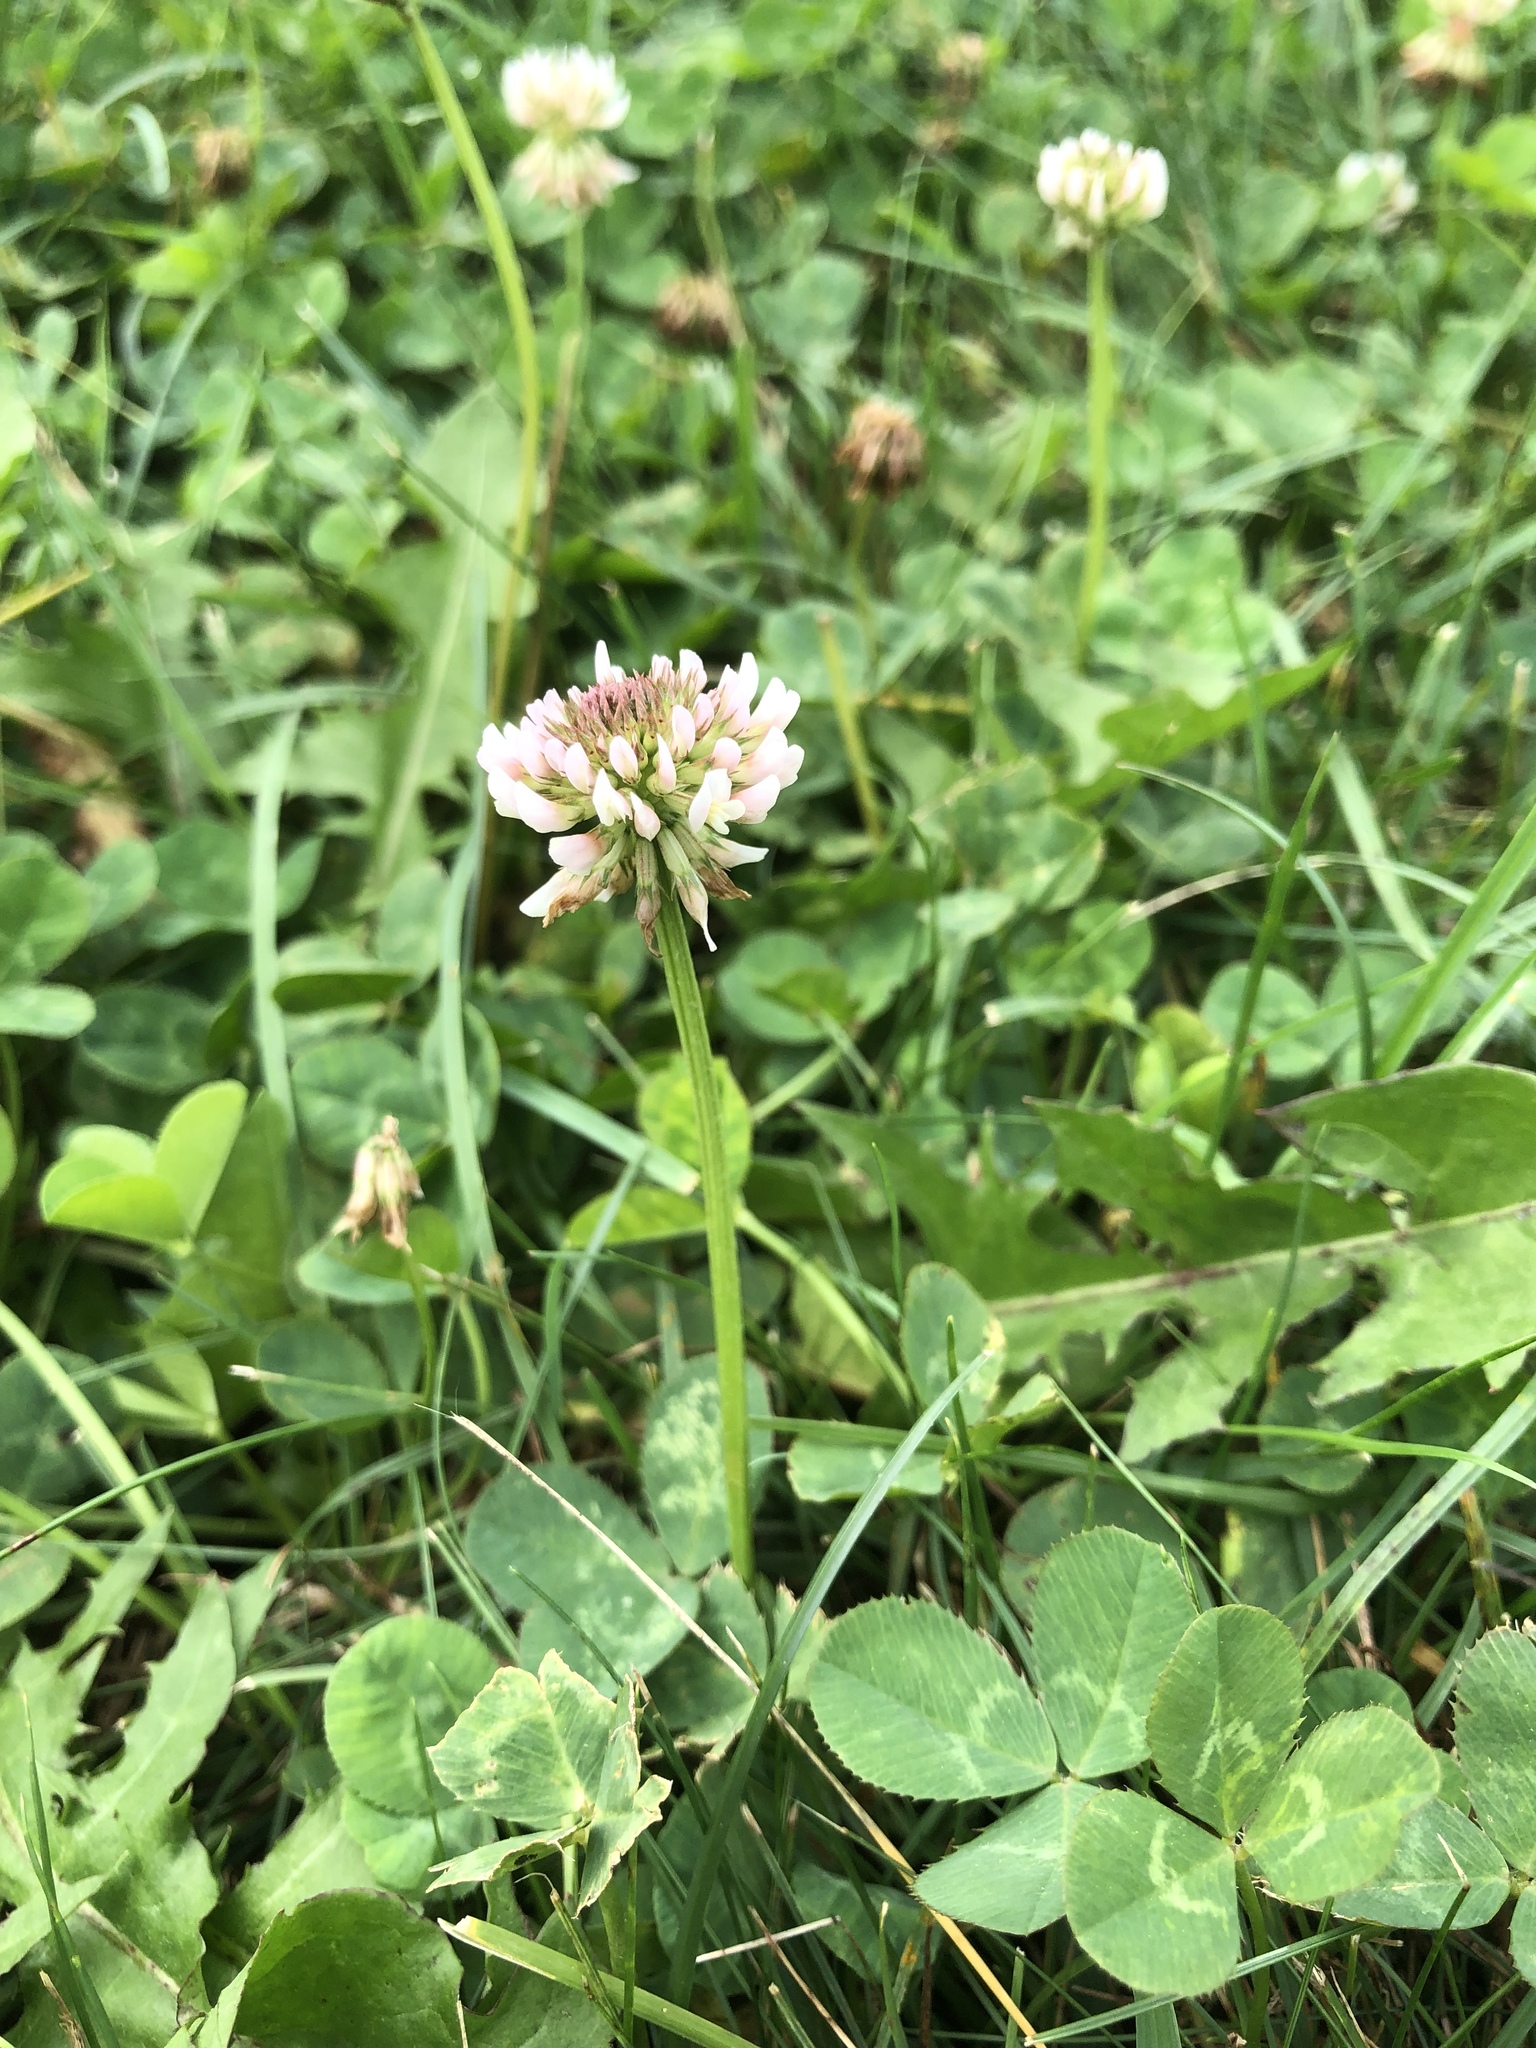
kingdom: Plantae
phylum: Tracheophyta
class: Magnoliopsida
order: Fabales
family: Fabaceae
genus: Trifolium
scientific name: Trifolium repens
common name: White clover
